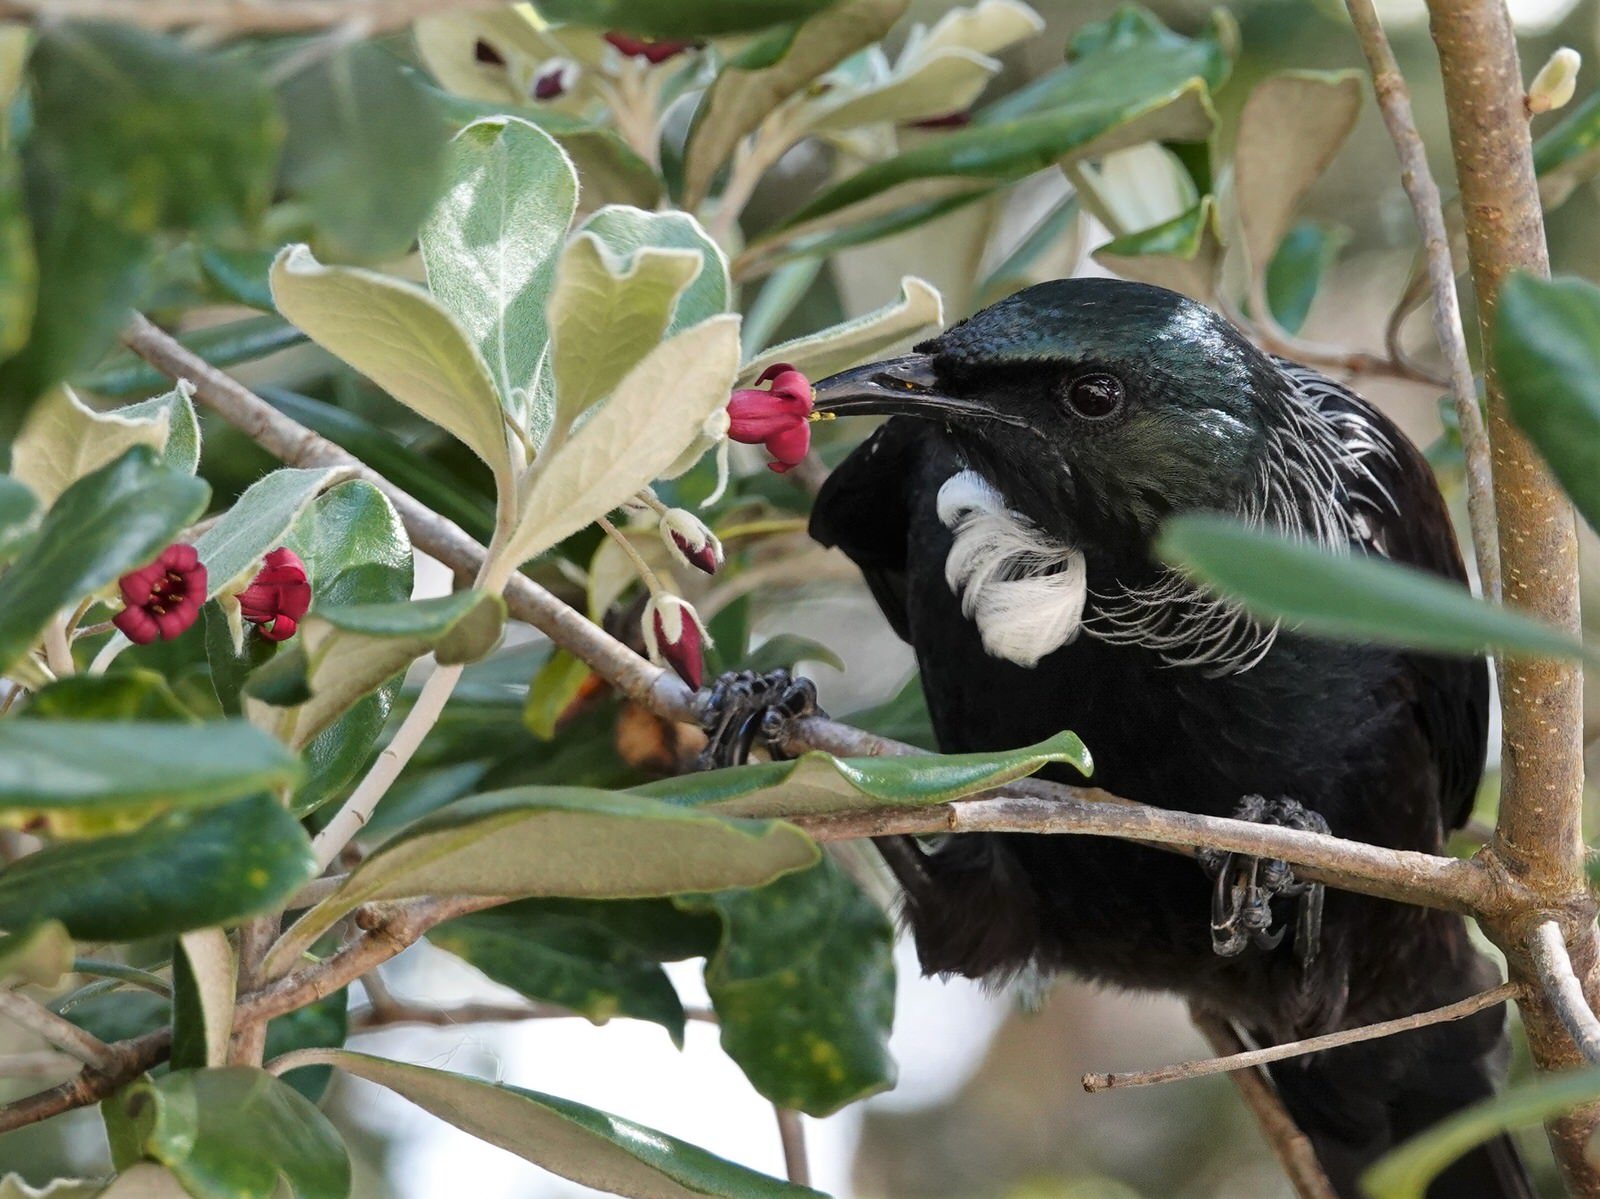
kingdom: Animalia
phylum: Chordata
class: Aves
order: Passeriformes
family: Meliphagidae
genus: Prosthemadera
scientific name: Prosthemadera novaeseelandiae
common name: Tui
